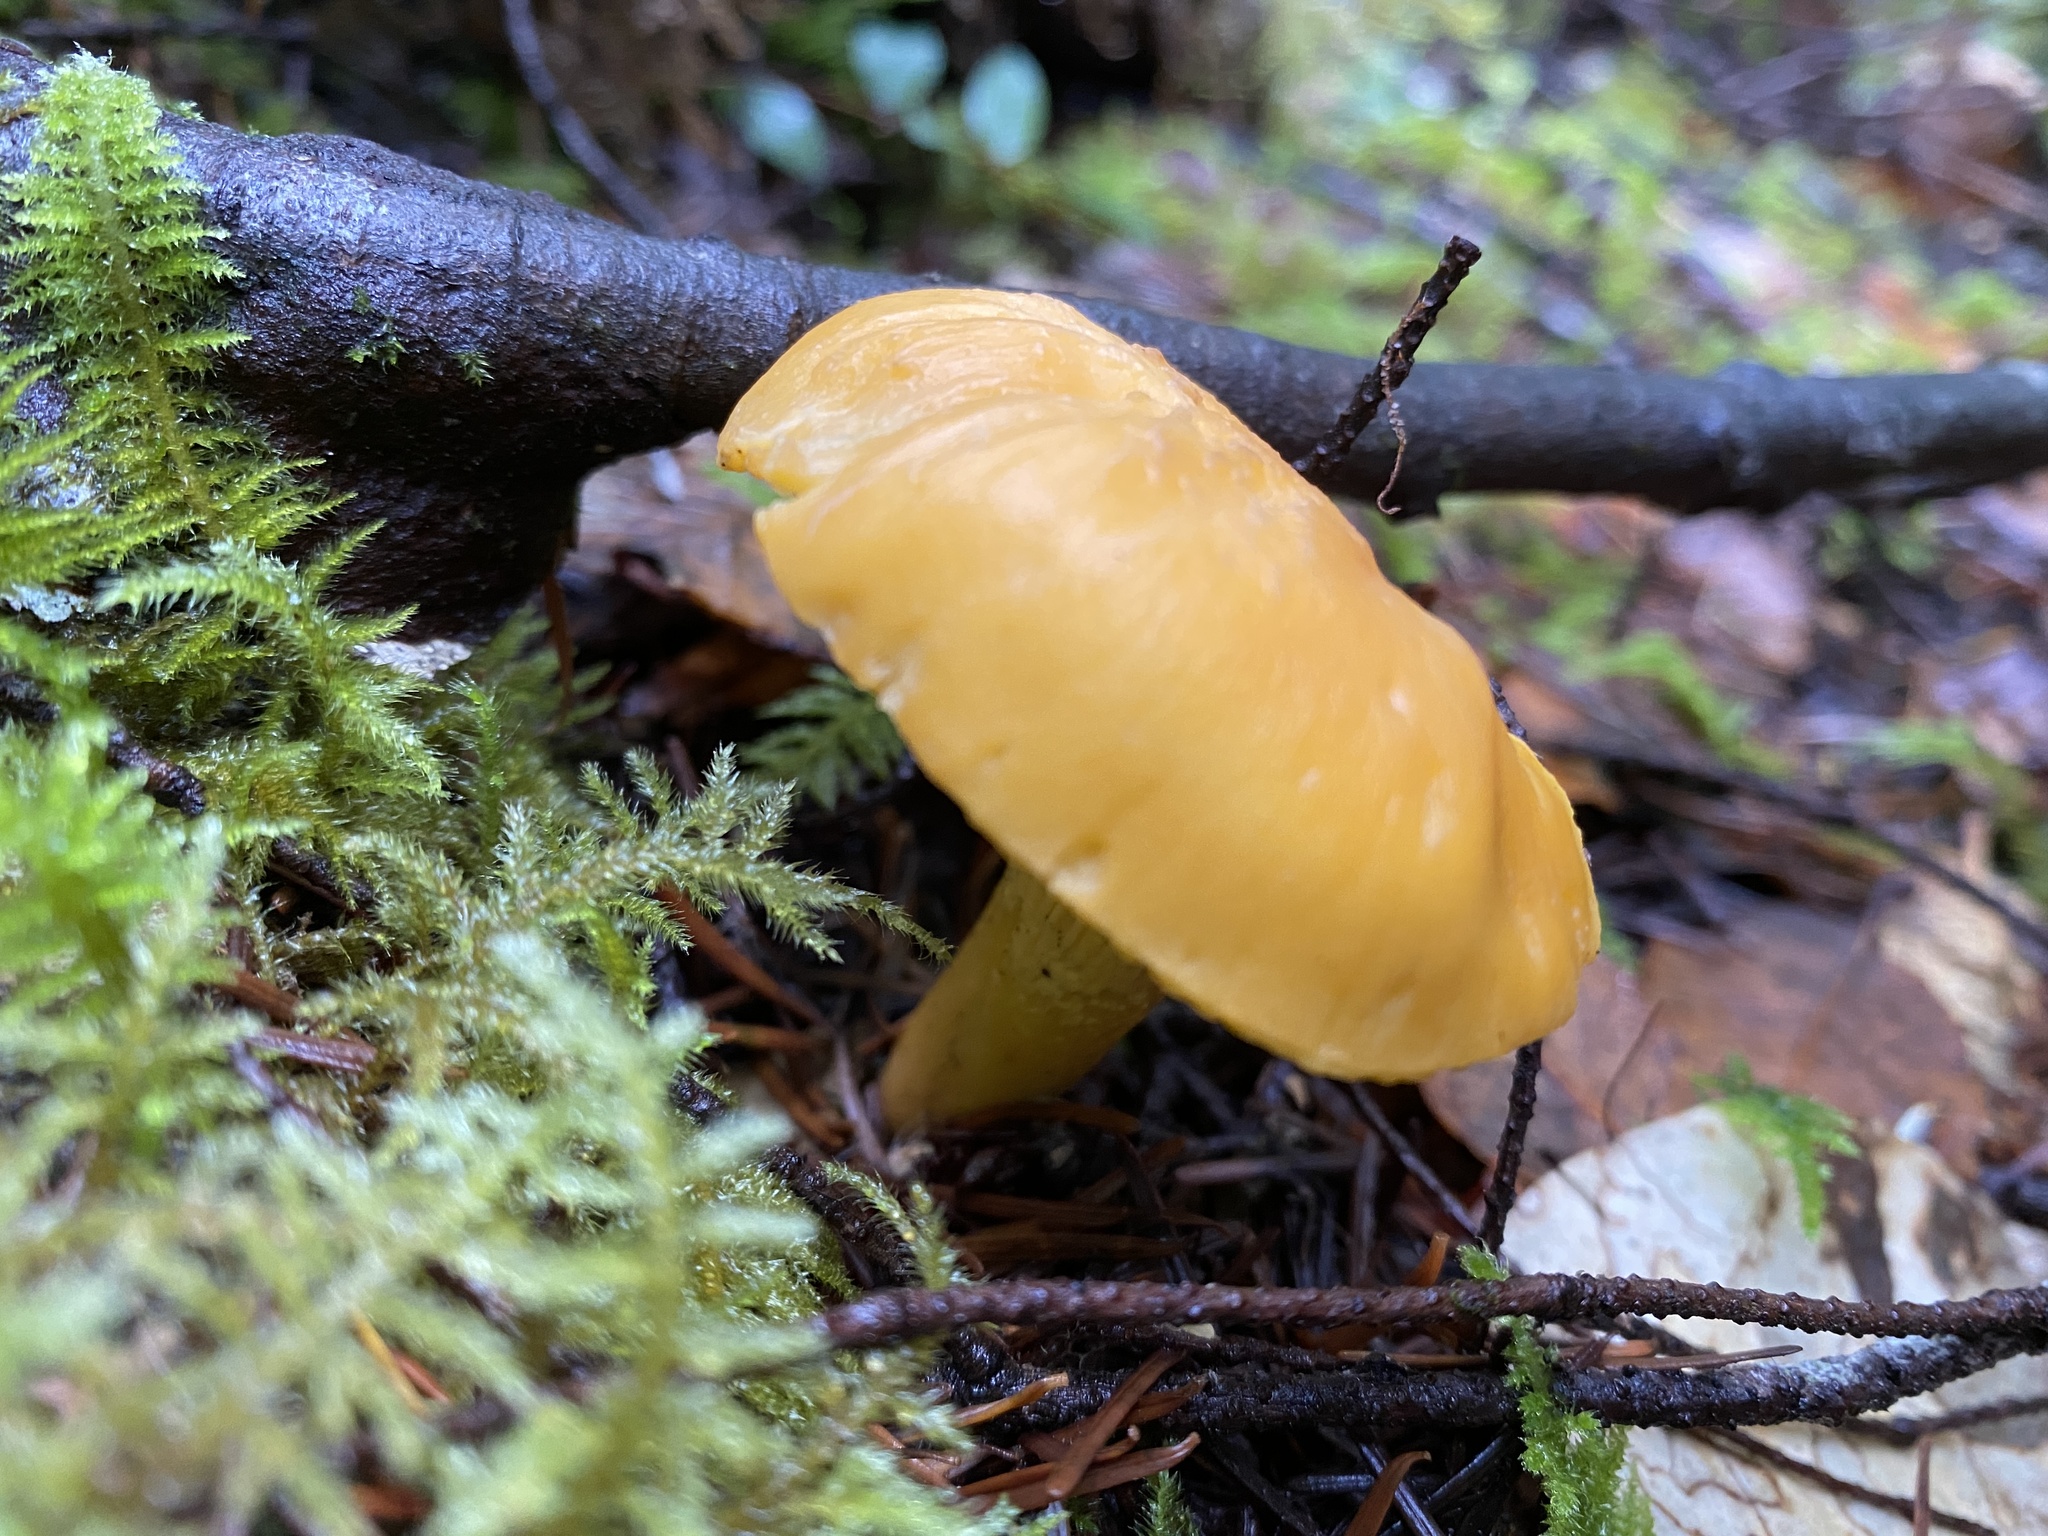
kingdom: Fungi
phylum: Basidiomycota
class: Agaricomycetes
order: Cantharellales
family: Hydnaceae
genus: Cantharellus
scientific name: Cantharellus formosus
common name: Pacific golden chanterelle
